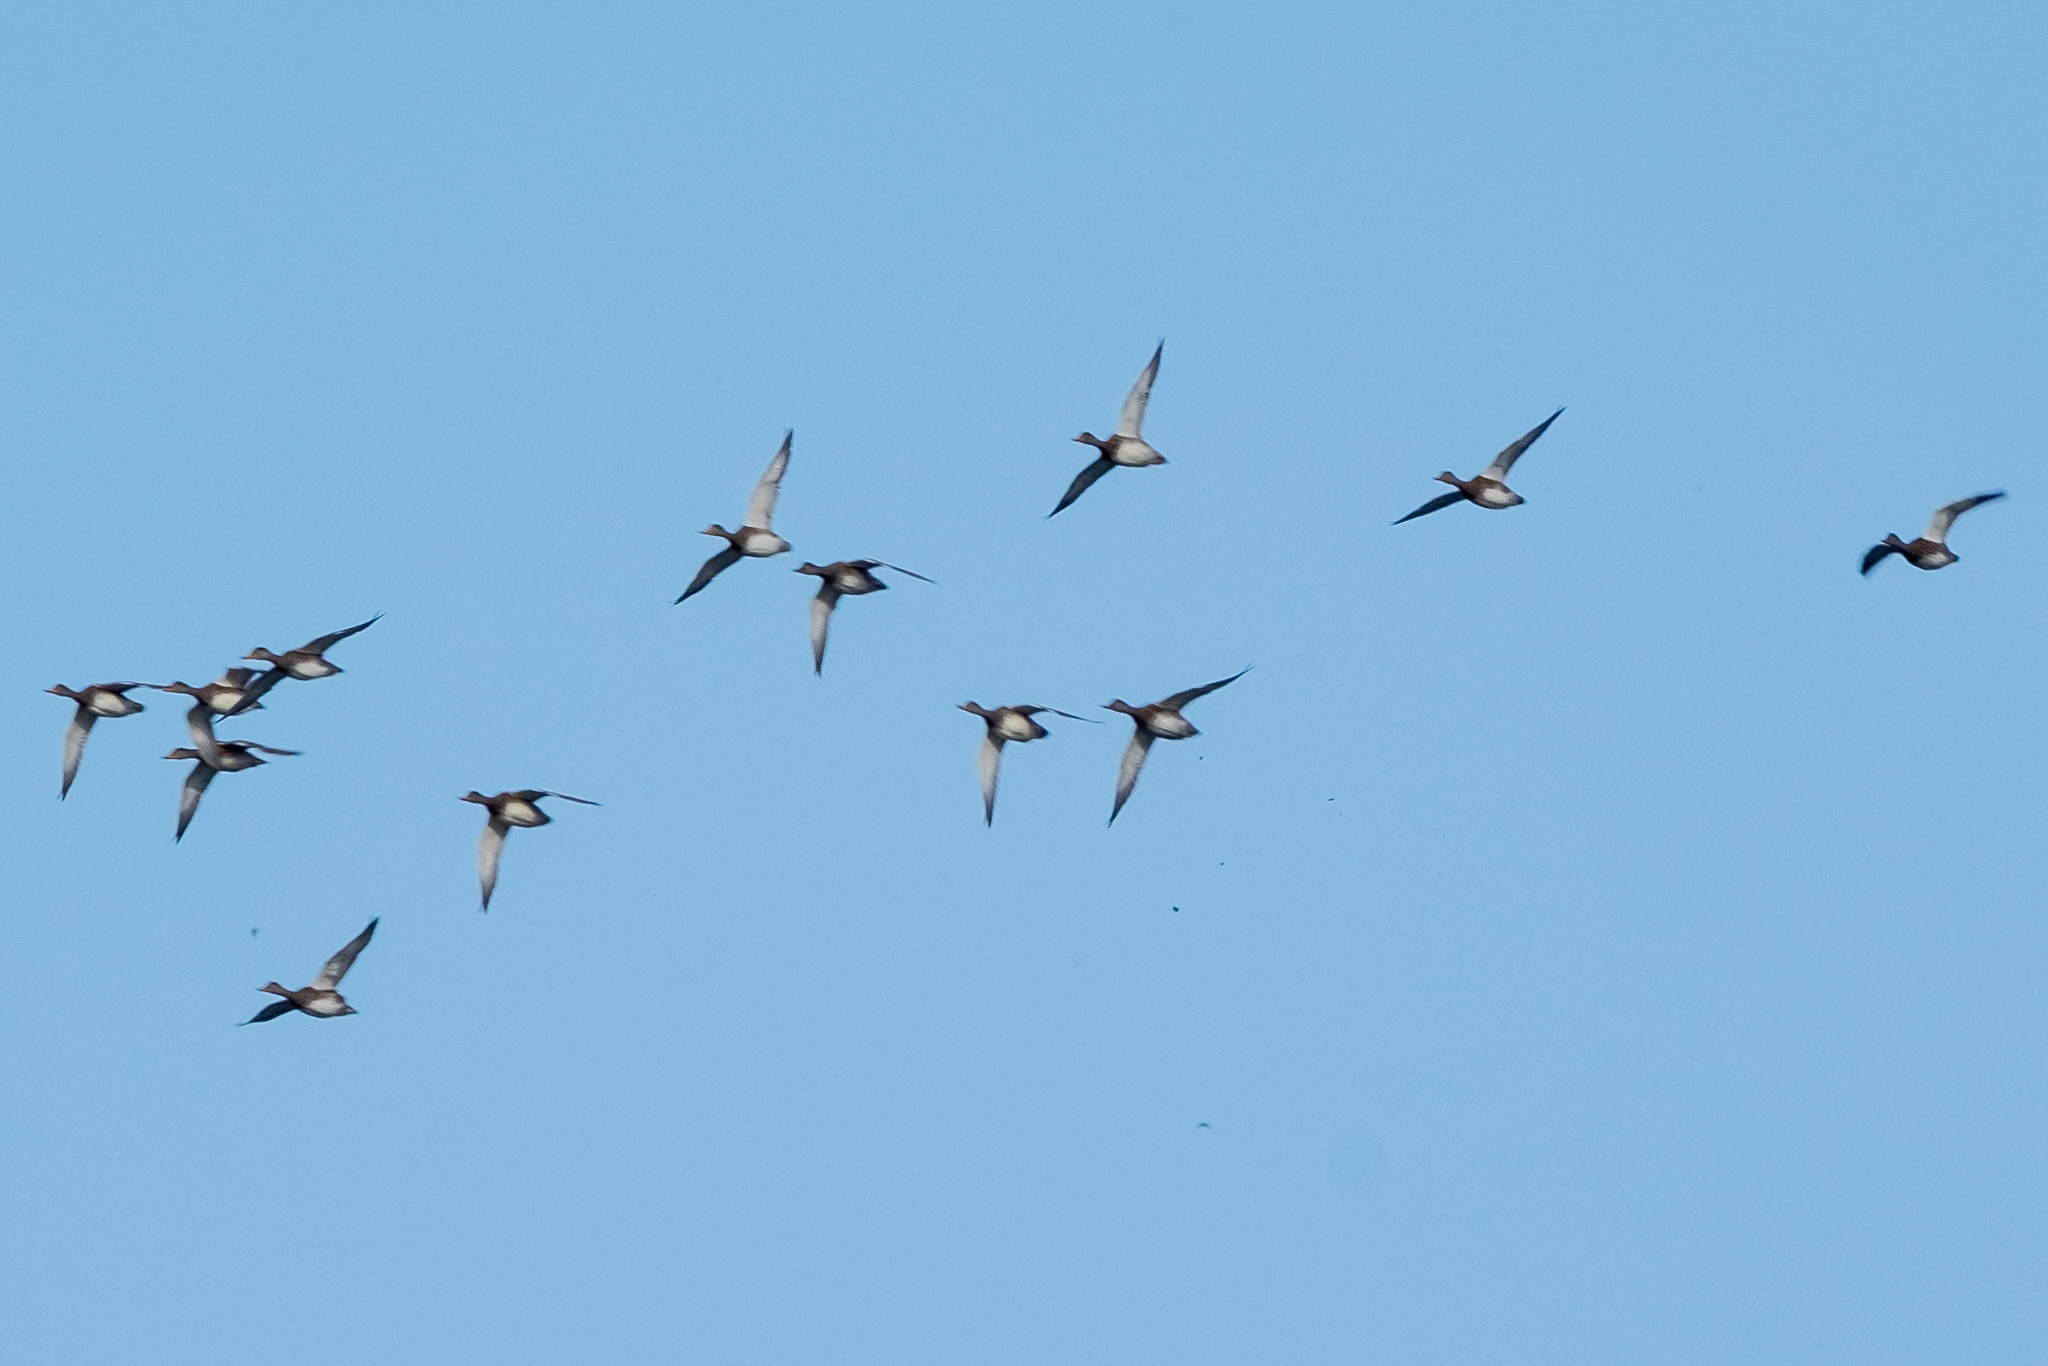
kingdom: Animalia
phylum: Chordata
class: Aves
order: Anseriformes
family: Anatidae
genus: Mareca
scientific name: Mareca strepera
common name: Gadwall
